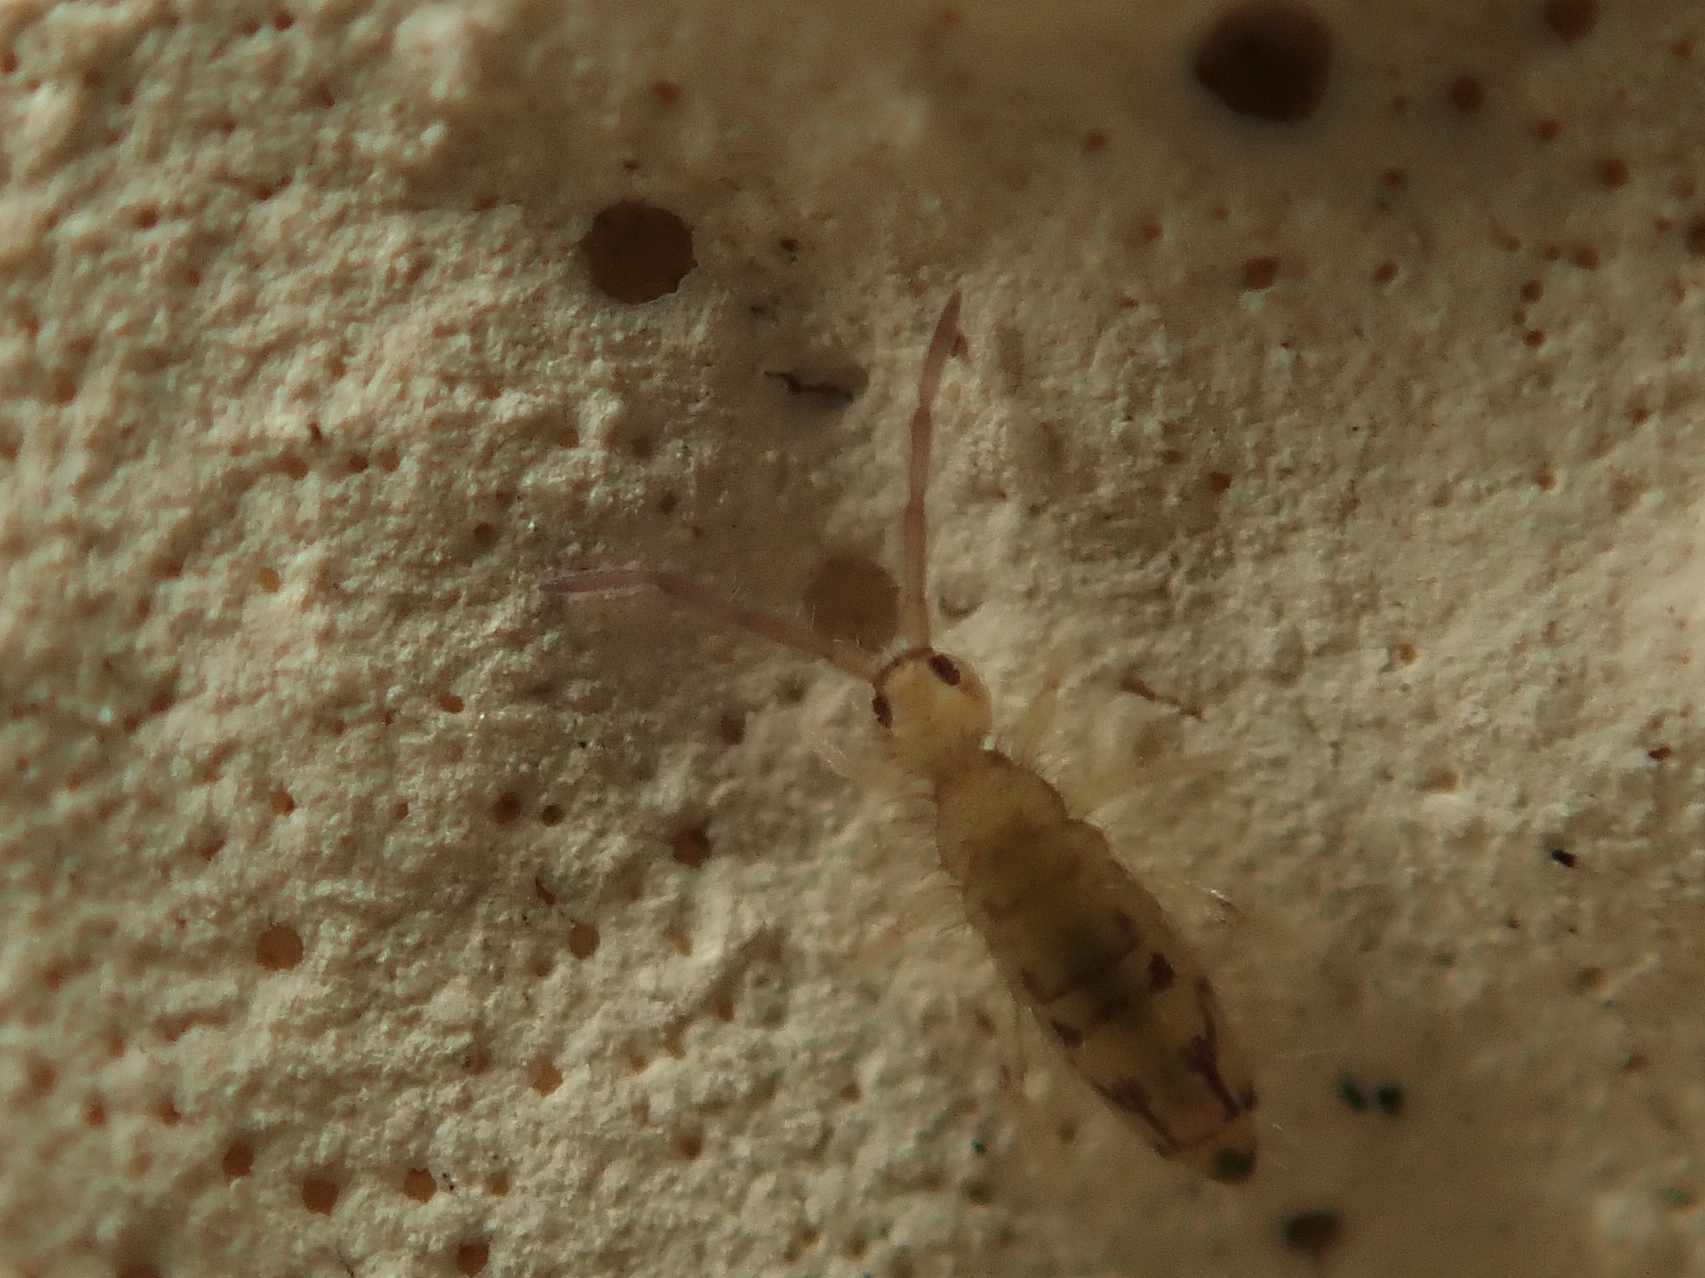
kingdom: Animalia
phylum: Arthropoda
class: Collembola
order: Entomobryomorpha
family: Entomobryidae
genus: Entomobrya
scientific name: Entomobrya nivalis
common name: Cosmopolitan springtail
